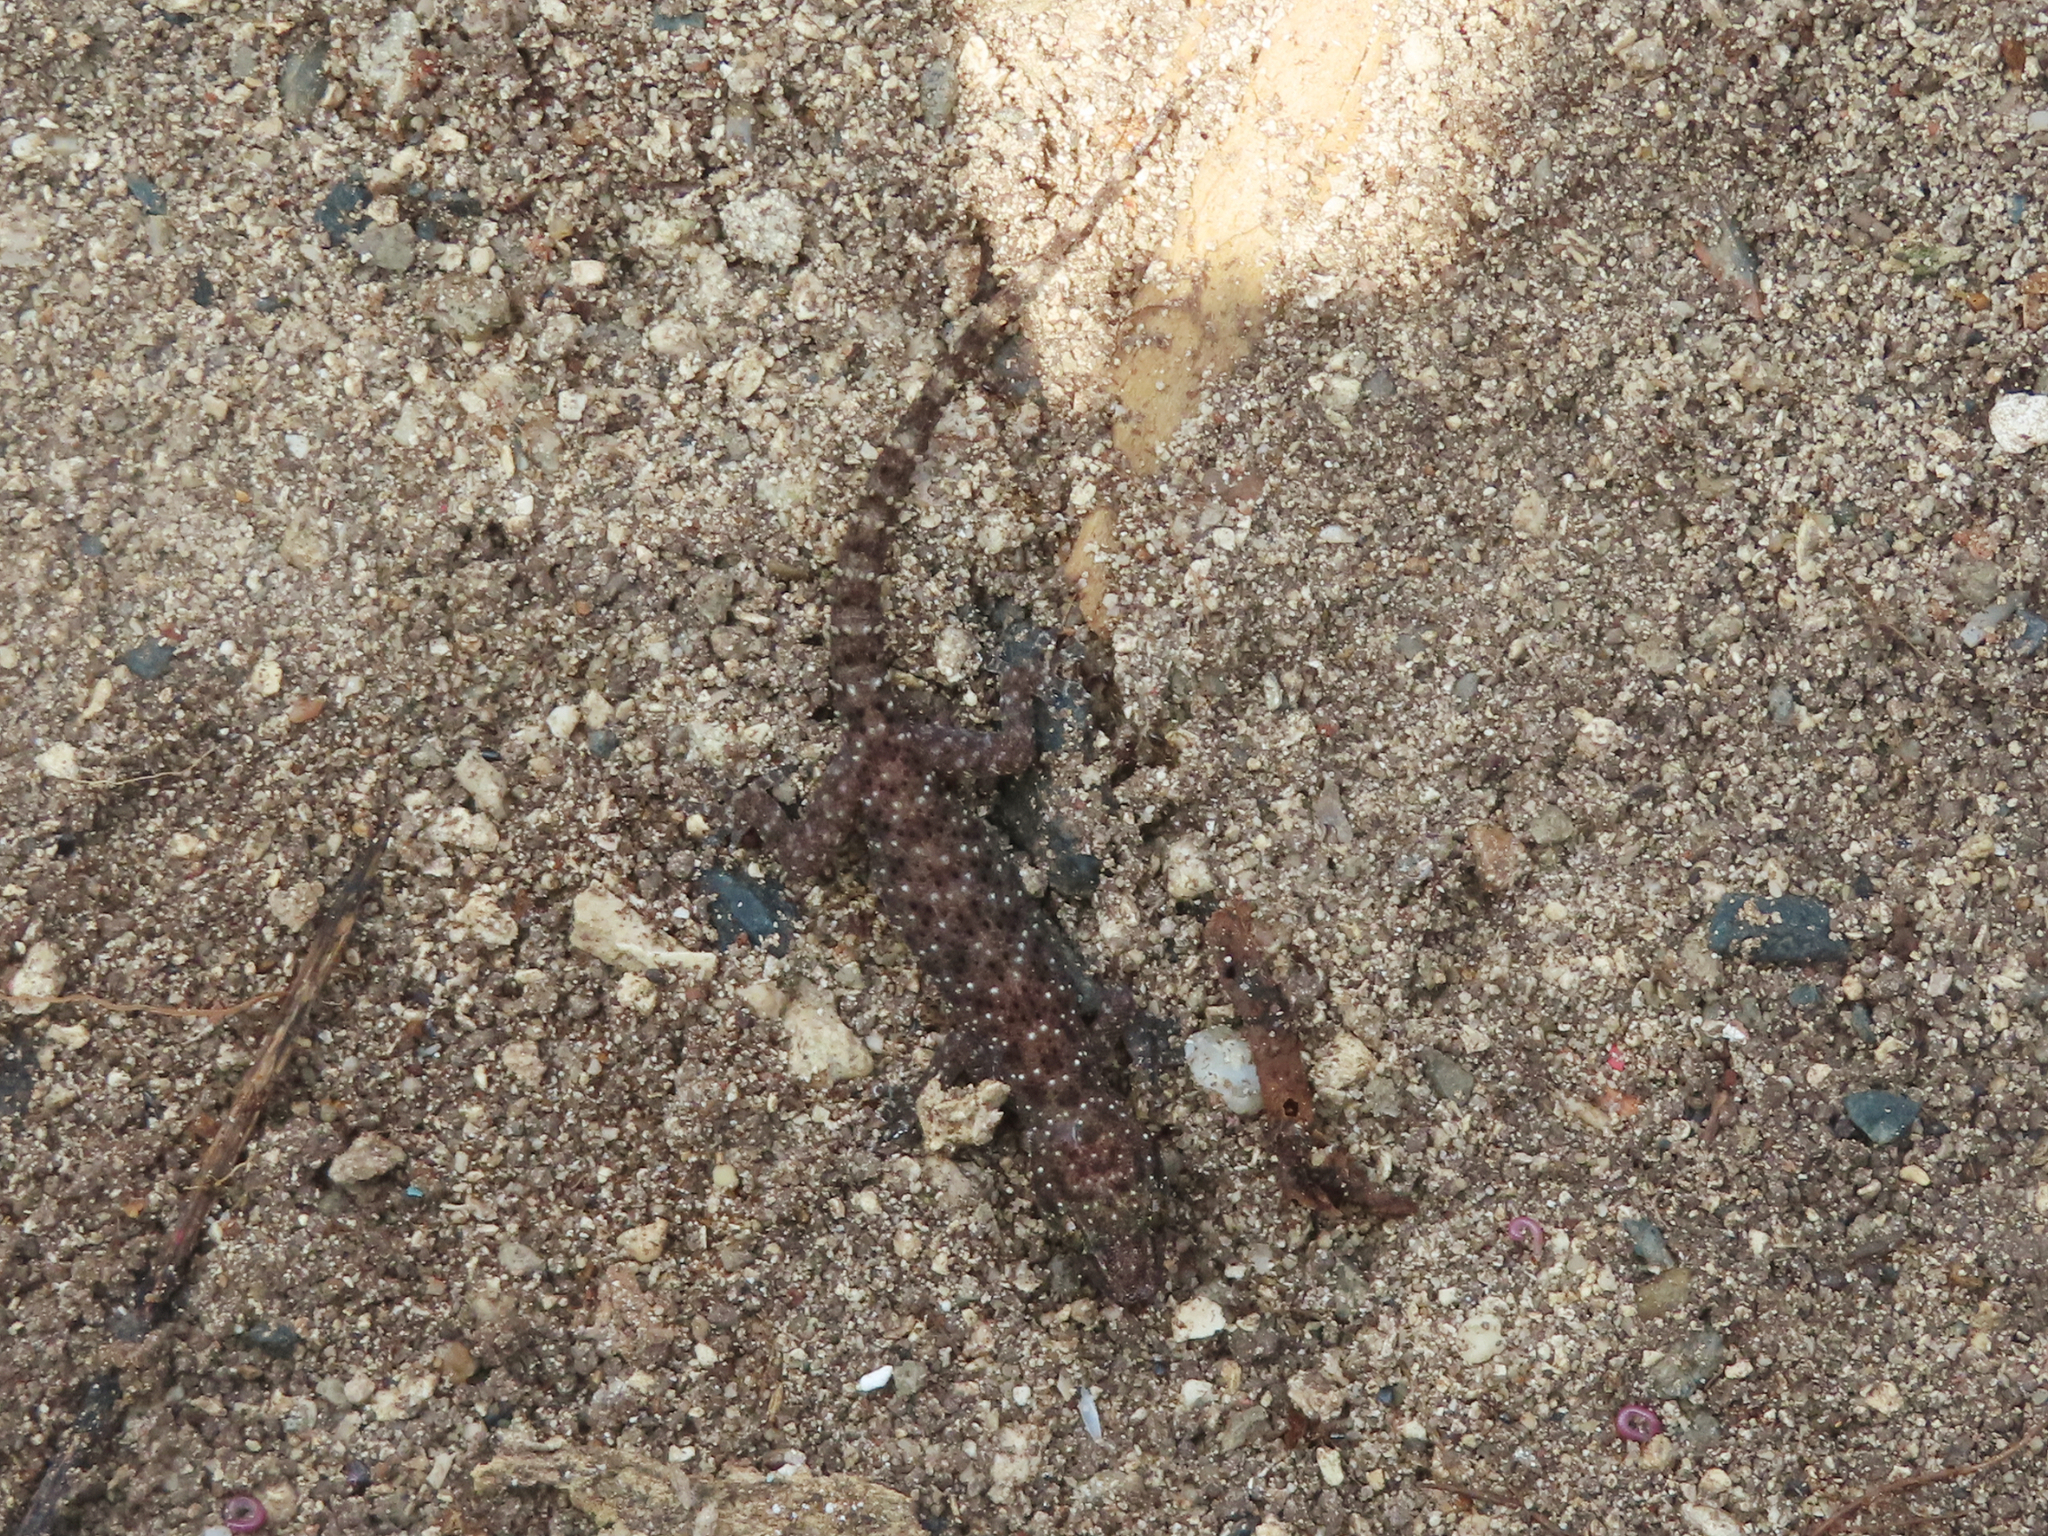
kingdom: Animalia
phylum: Chordata
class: Squamata
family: Gekkonidae
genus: Hemidactylus
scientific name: Hemidactylus parvimaculatus
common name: Spotted house gecko
